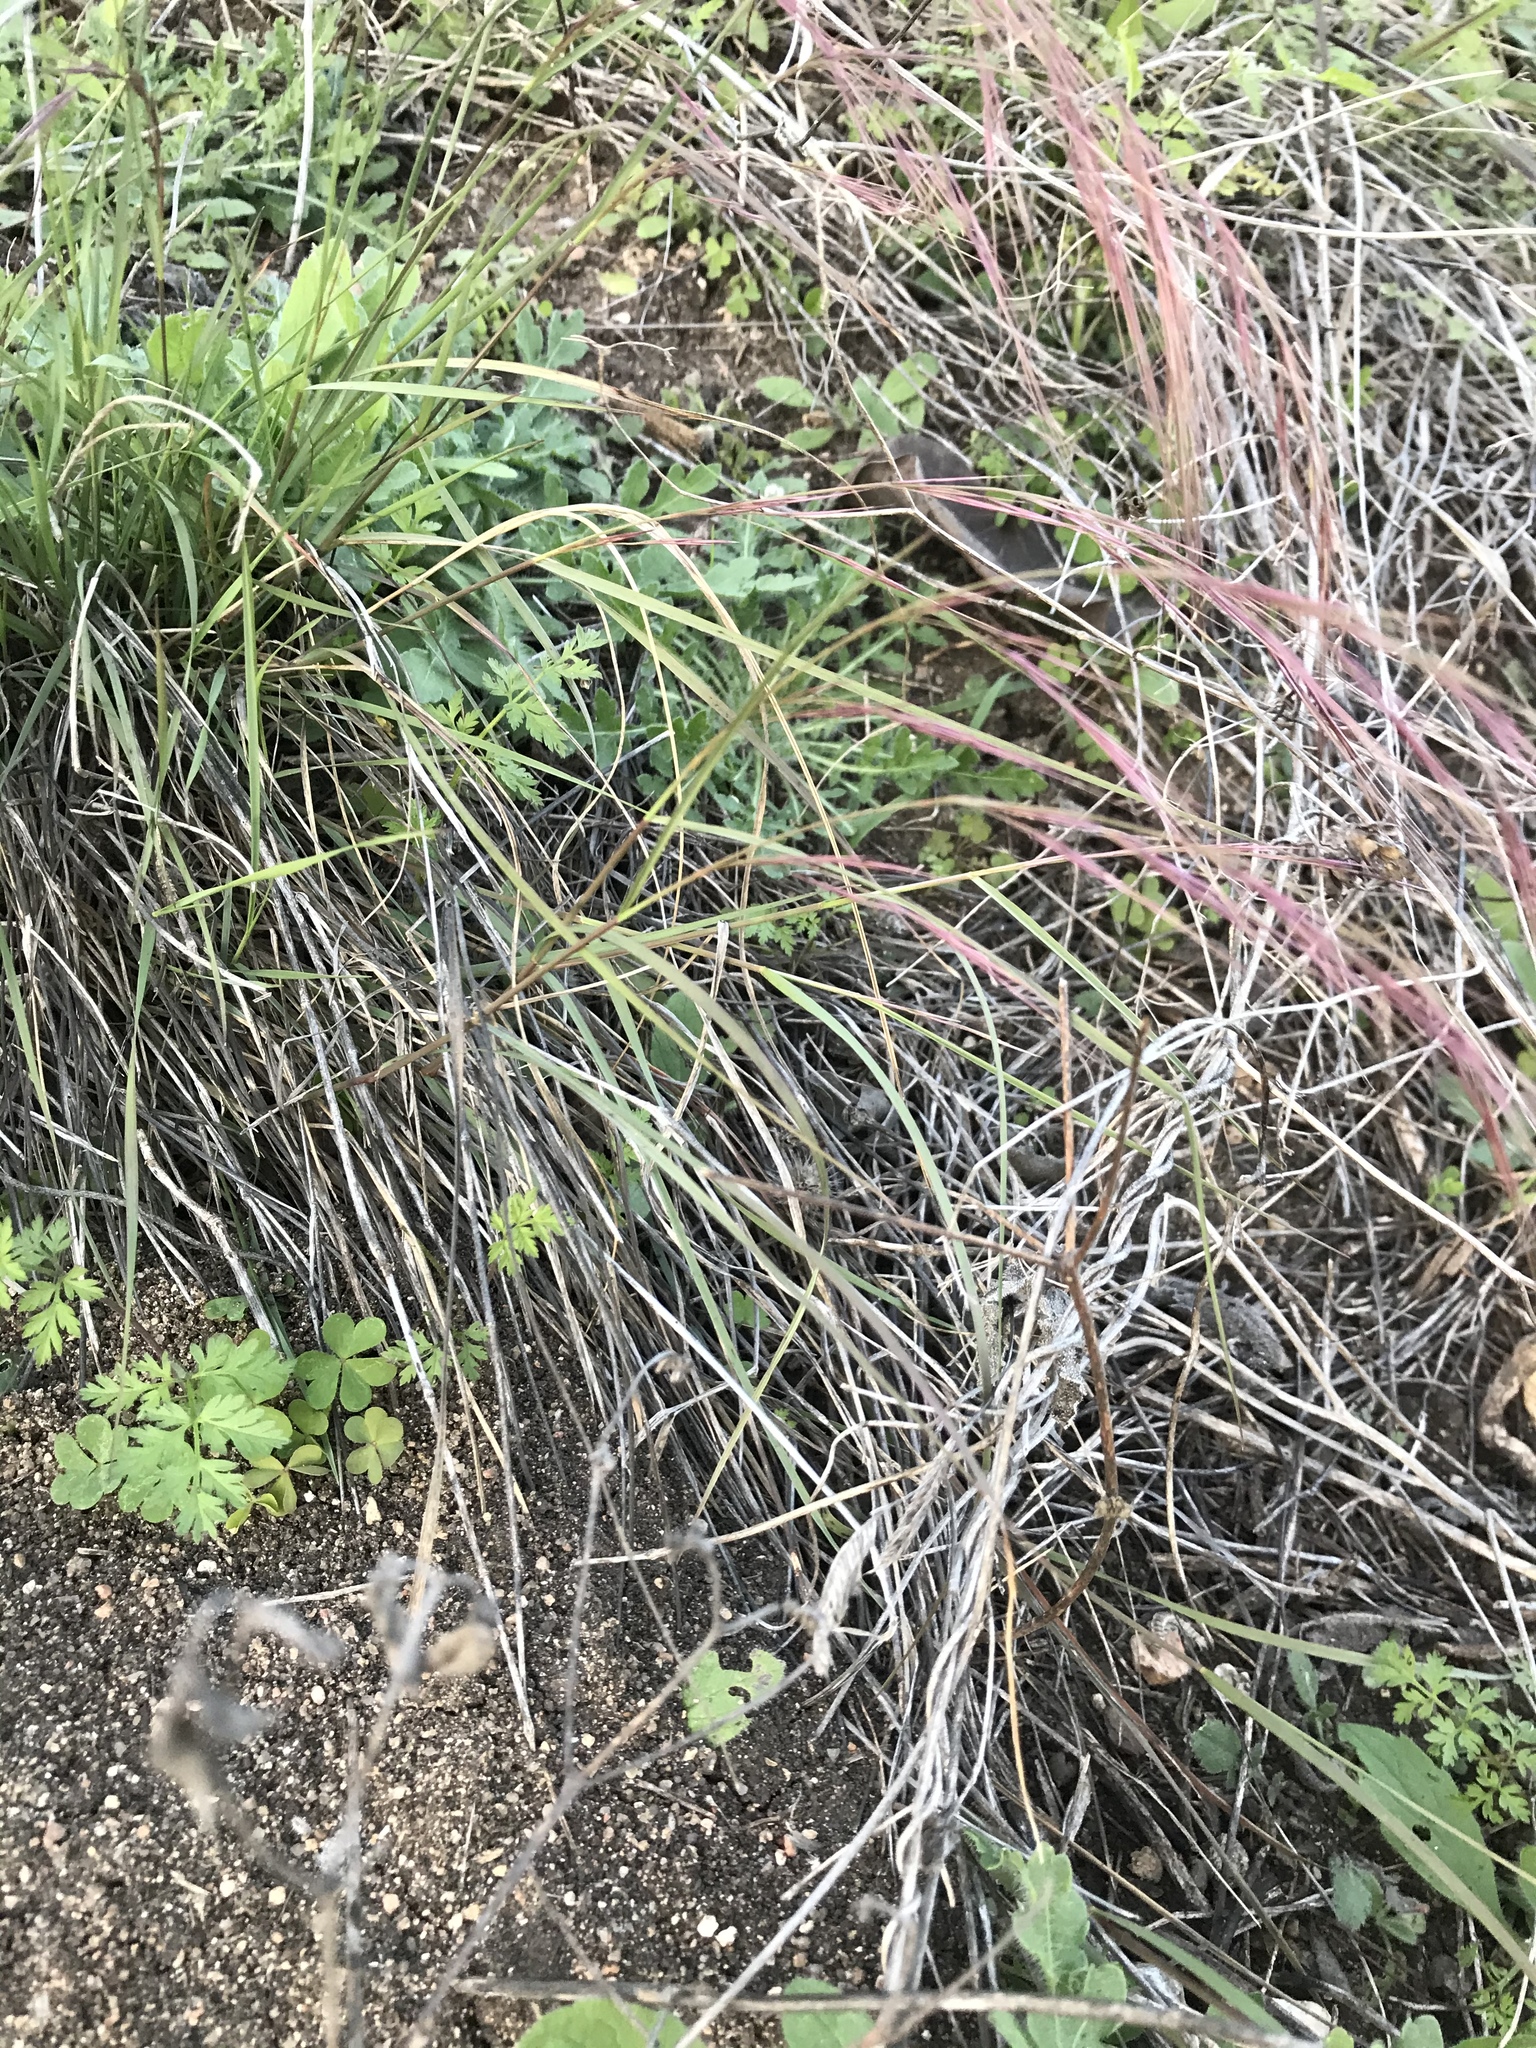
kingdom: Plantae
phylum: Tracheophyta
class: Liliopsida
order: Poales
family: Poaceae
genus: Aristida
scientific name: Aristida purpurea
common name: Purple threeawn
